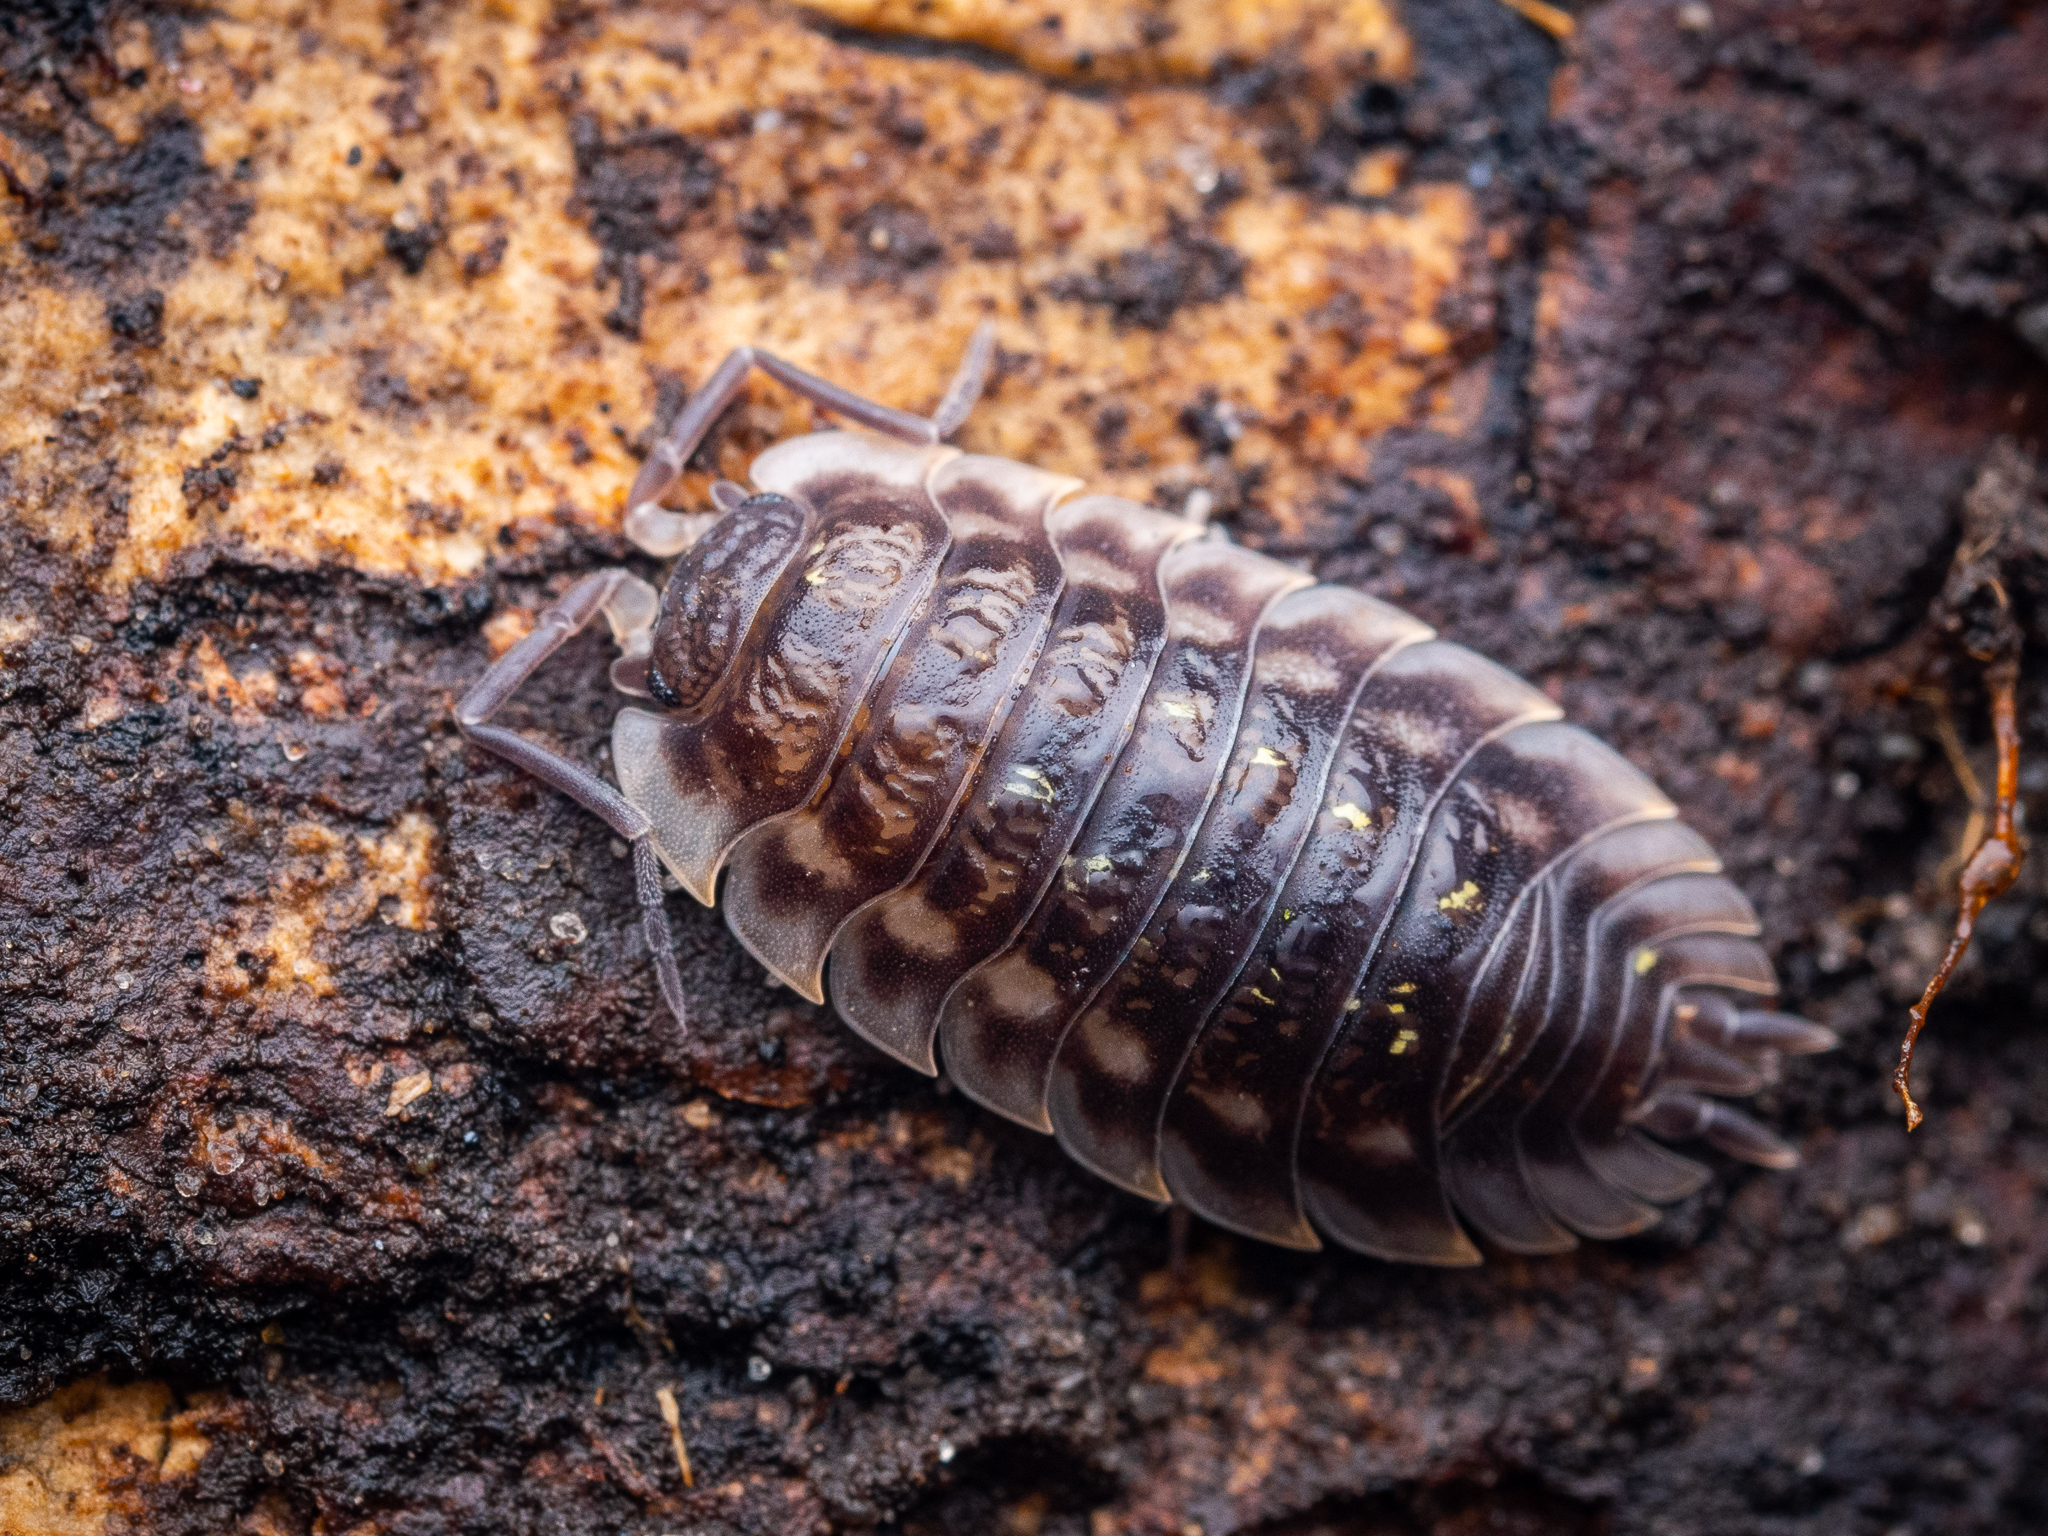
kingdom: Animalia
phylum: Arthropoda
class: Malacostraca
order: Isopoda
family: Oniscidae
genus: Oniscus
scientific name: Oniscus asellus
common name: Common shiny woodlouse
